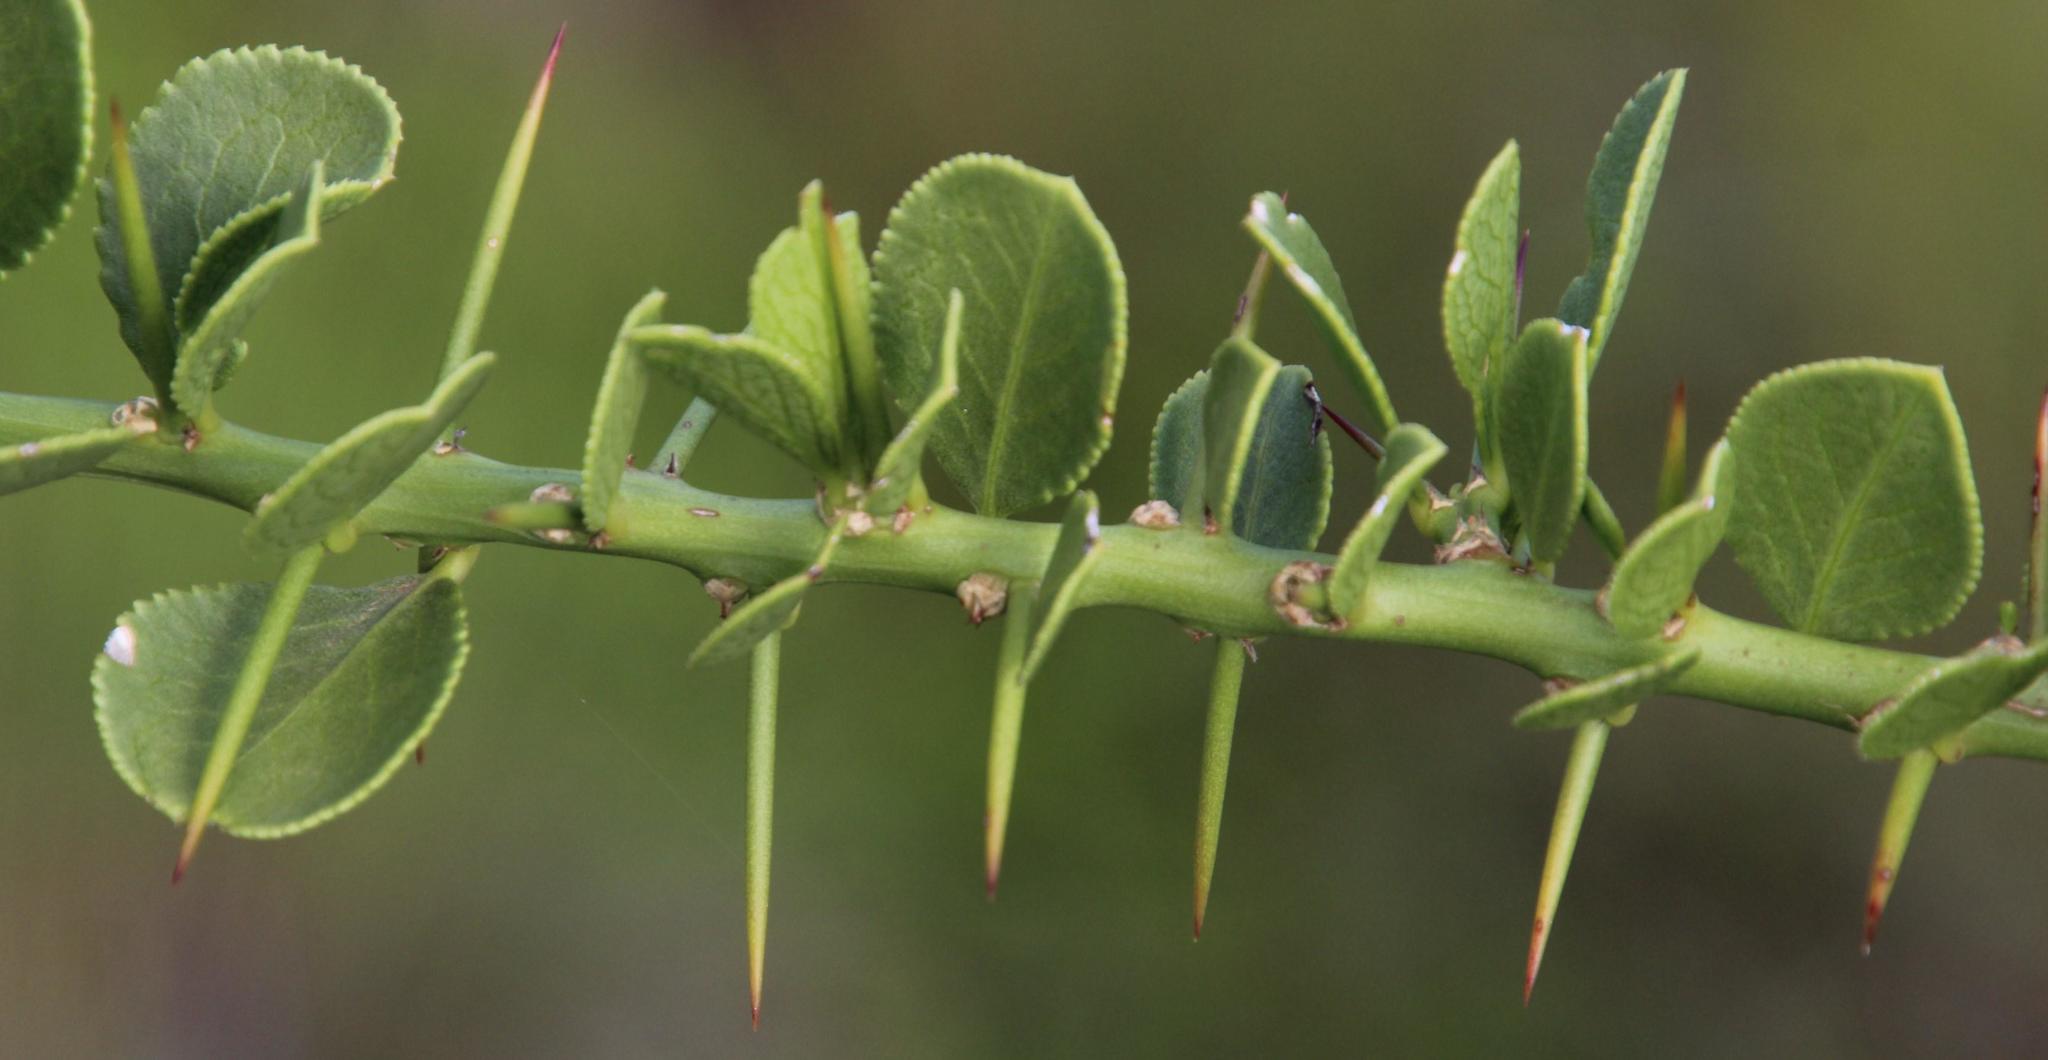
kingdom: Plantae
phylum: Tracheophyta
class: Magnoliopsida
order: Celastrales
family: Celastraceae
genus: Gymnosporia
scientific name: Gymnosporia buxifolia
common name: Common spike-thorn
